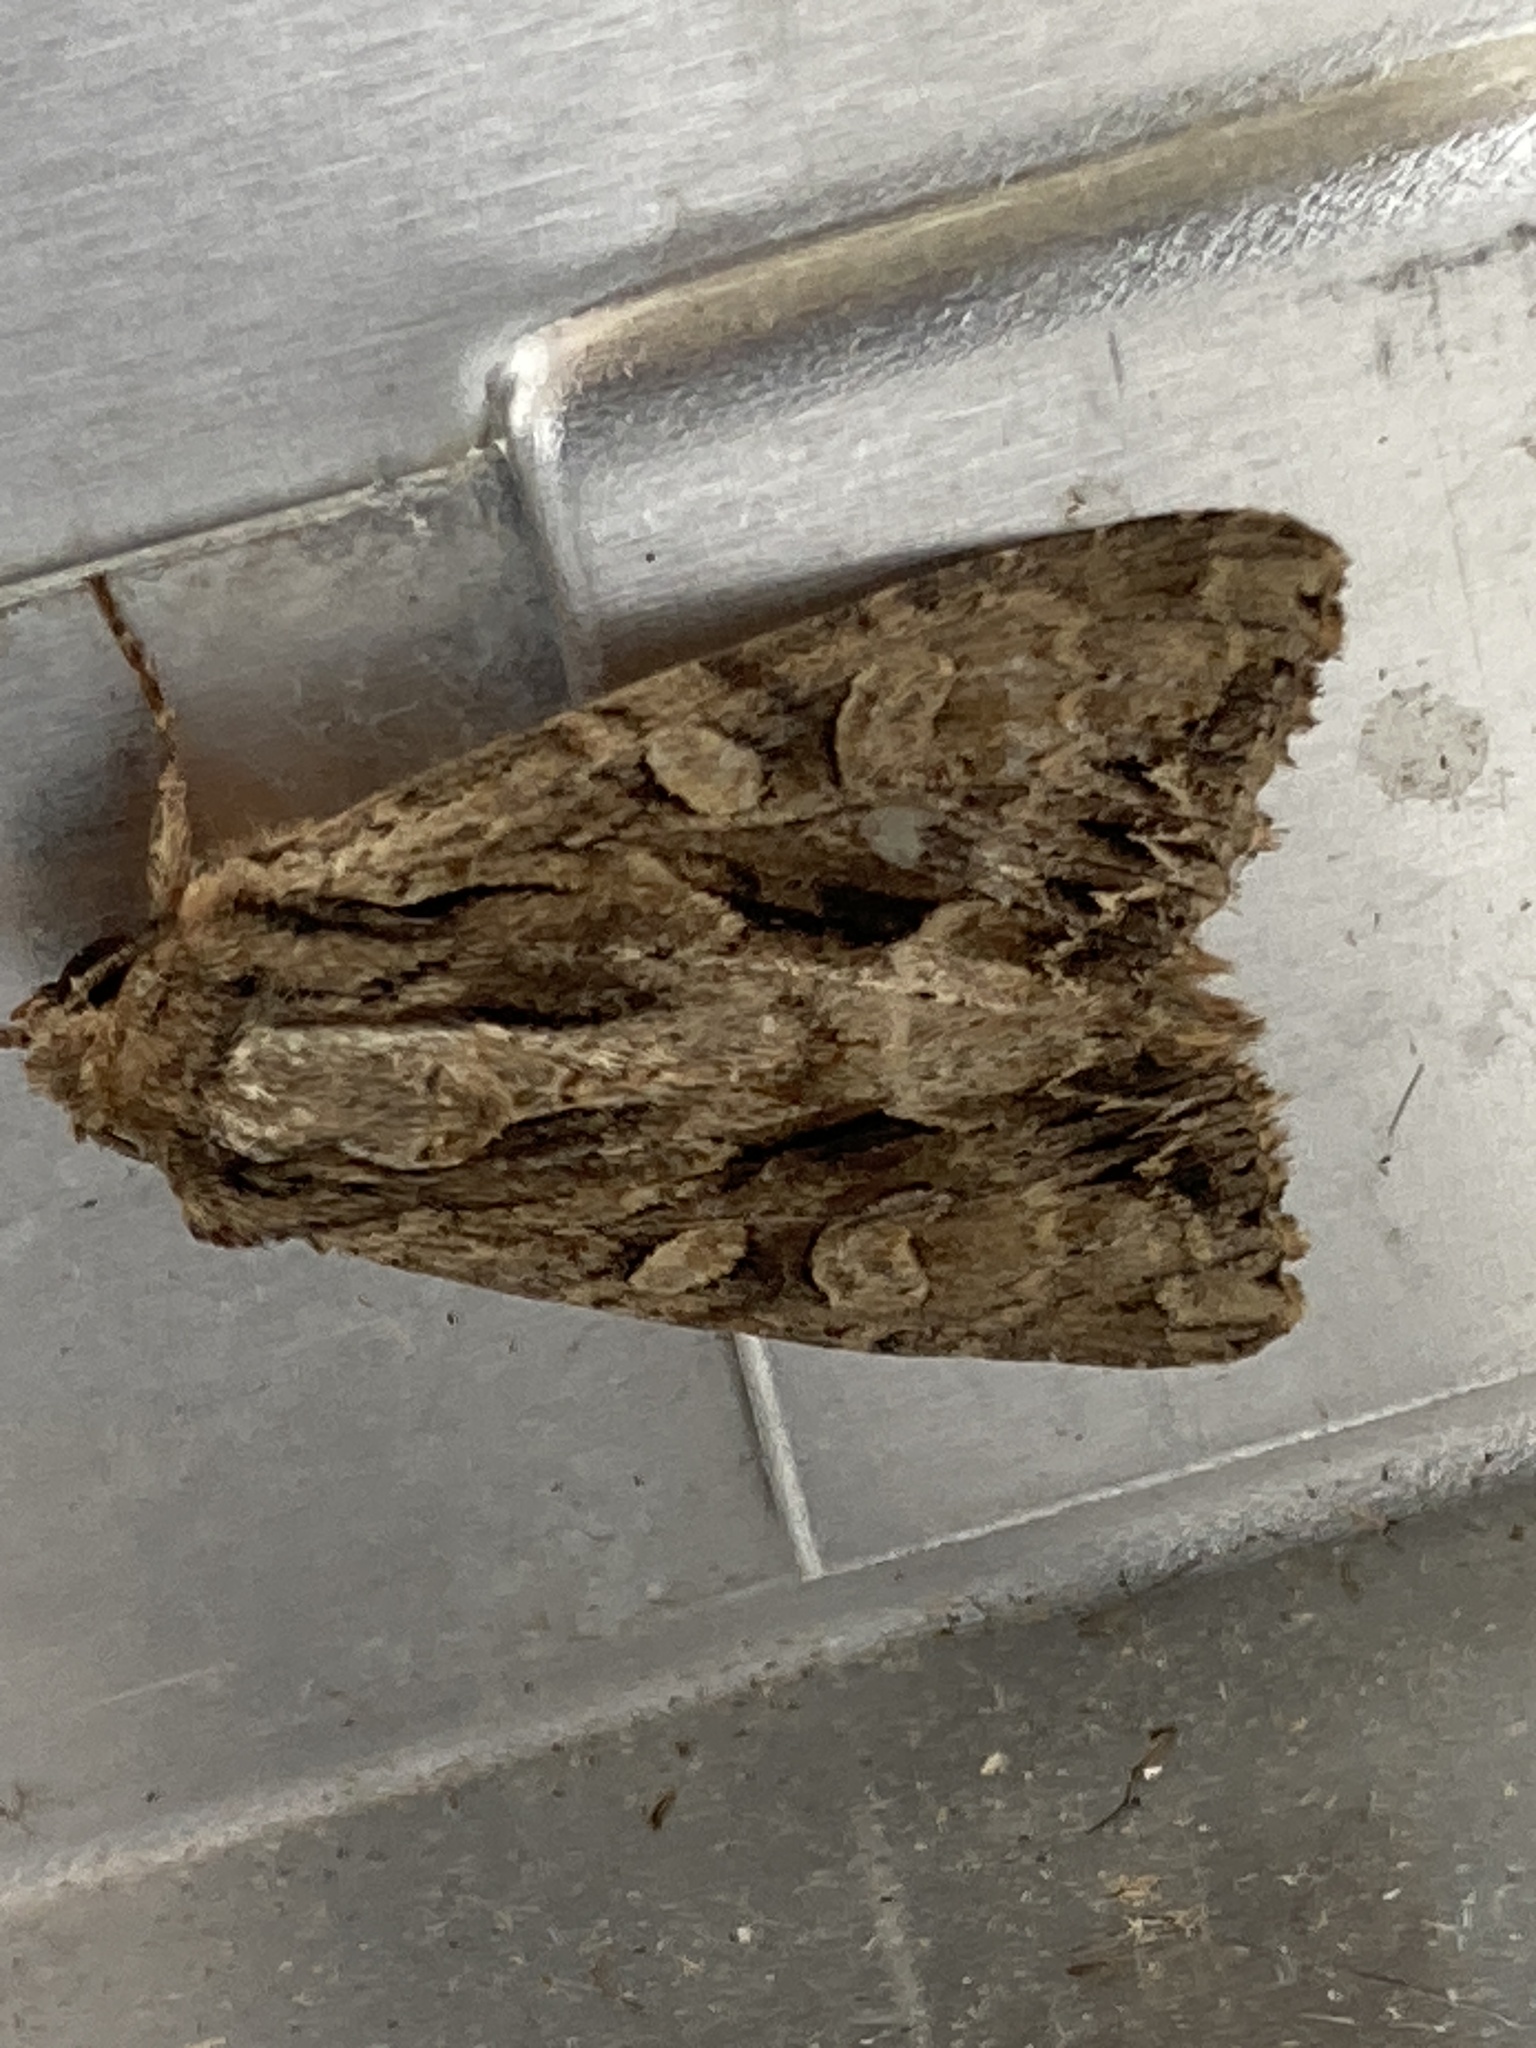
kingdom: Animalia
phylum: Arthropoda
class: Insecta
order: Lepidoptera
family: Noctuidae
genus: Apamea
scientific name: Apamea monoglypha
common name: Dark arches
